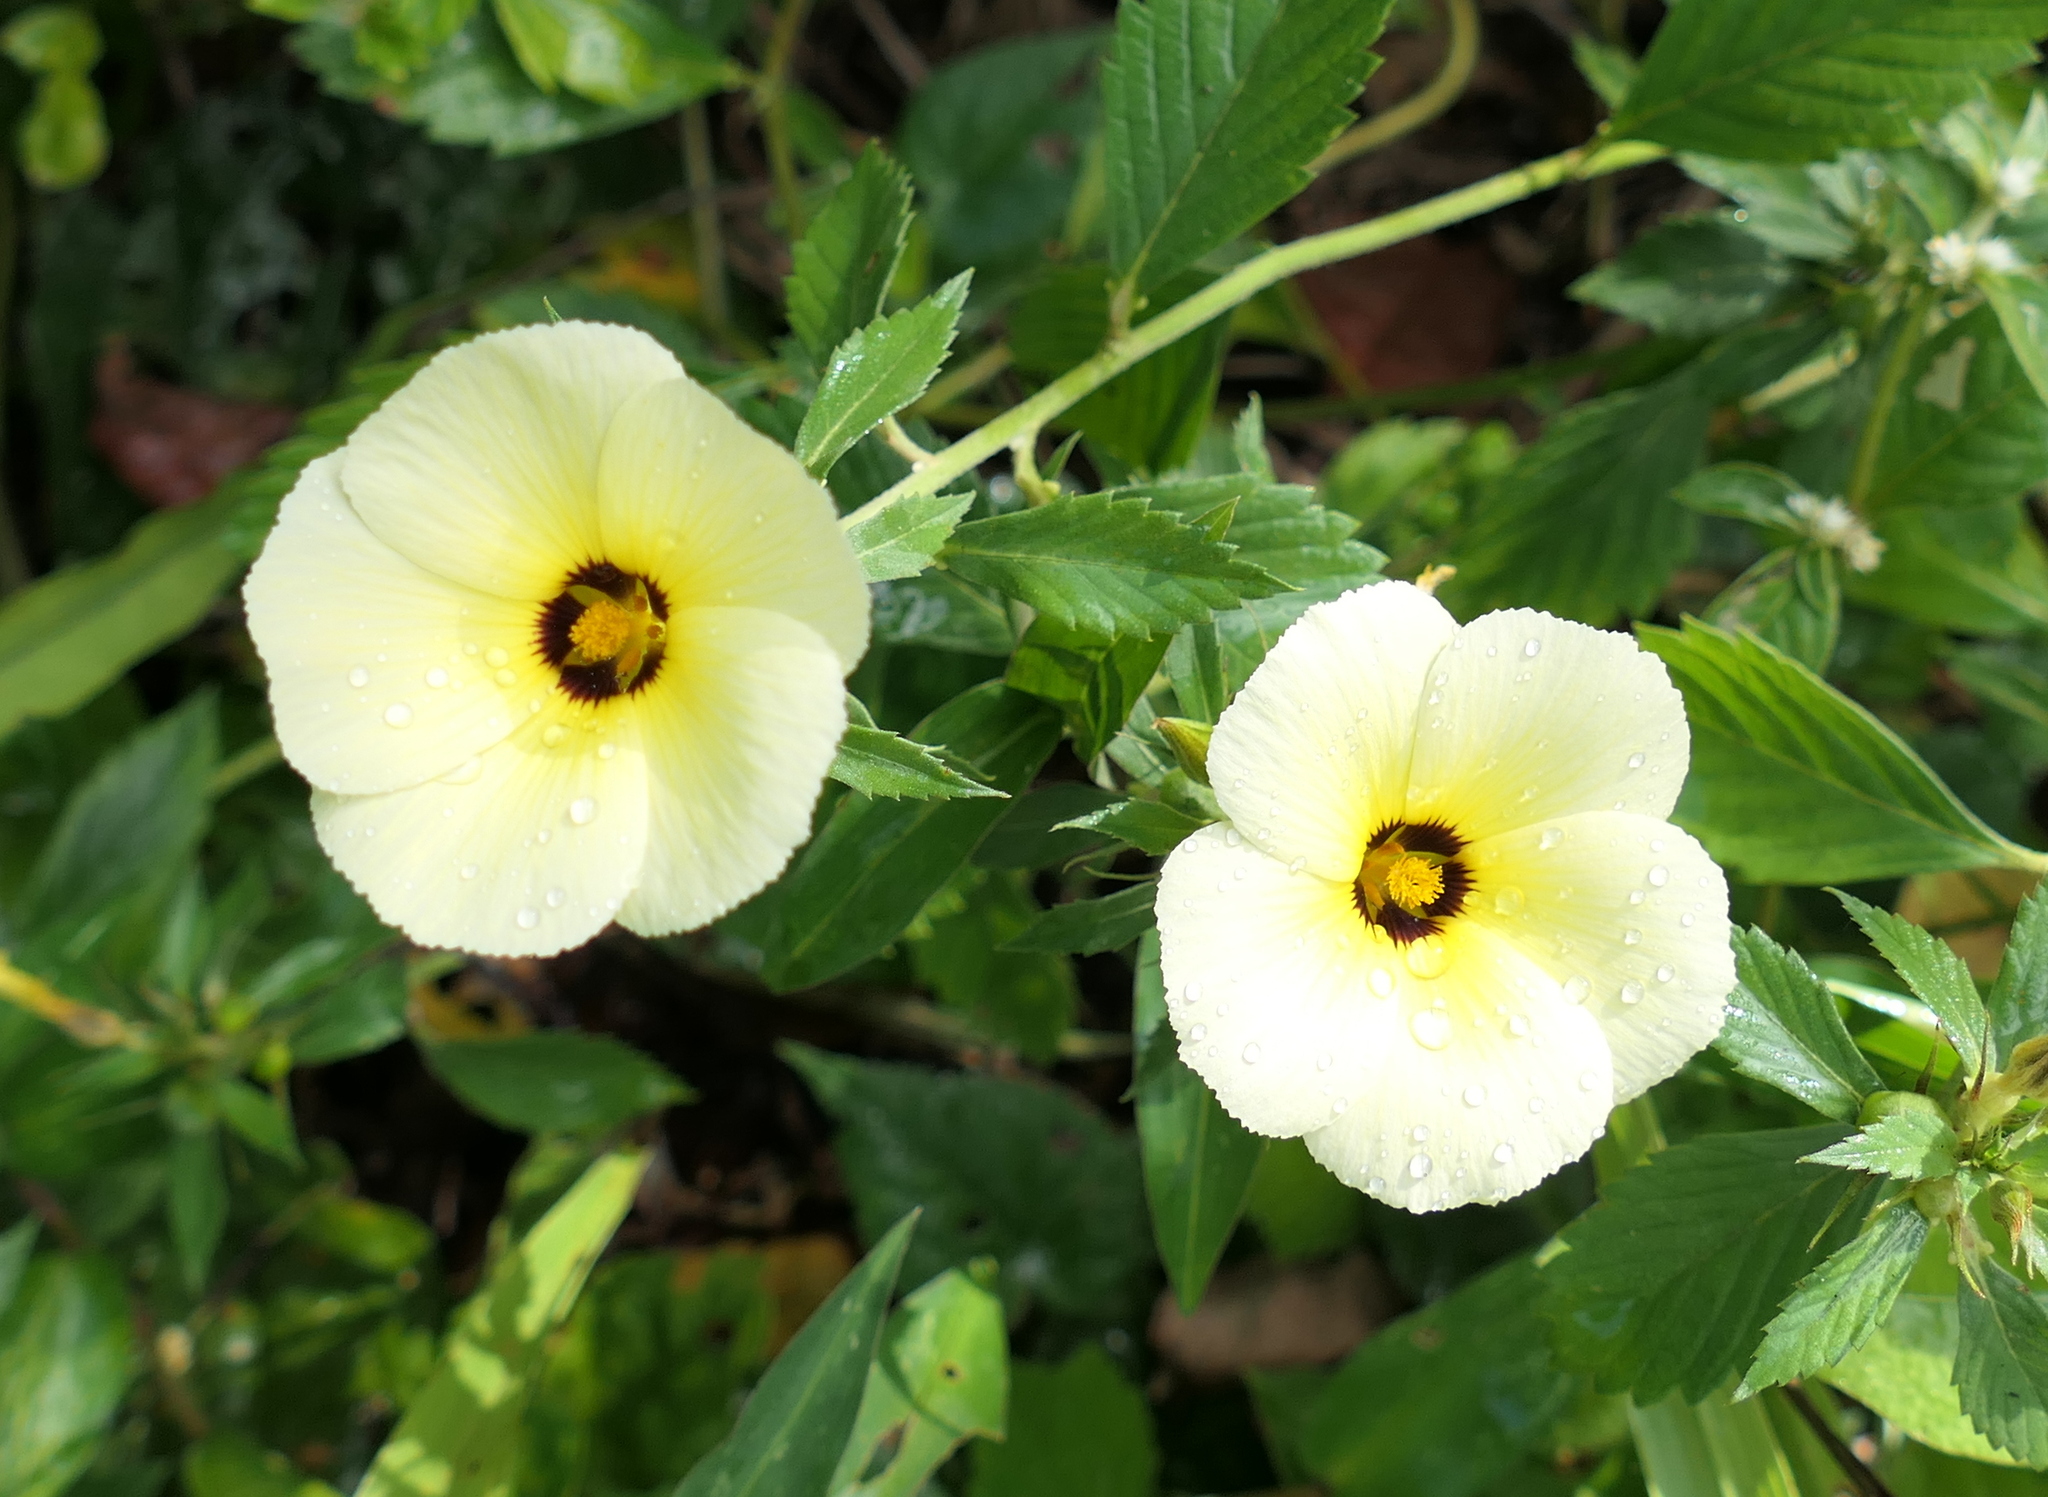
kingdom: Plantae
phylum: Tracheophyta
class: Magnoliopsida
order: Malpighiales
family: Turneraceae
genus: Turnera
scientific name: Turnera subulata
